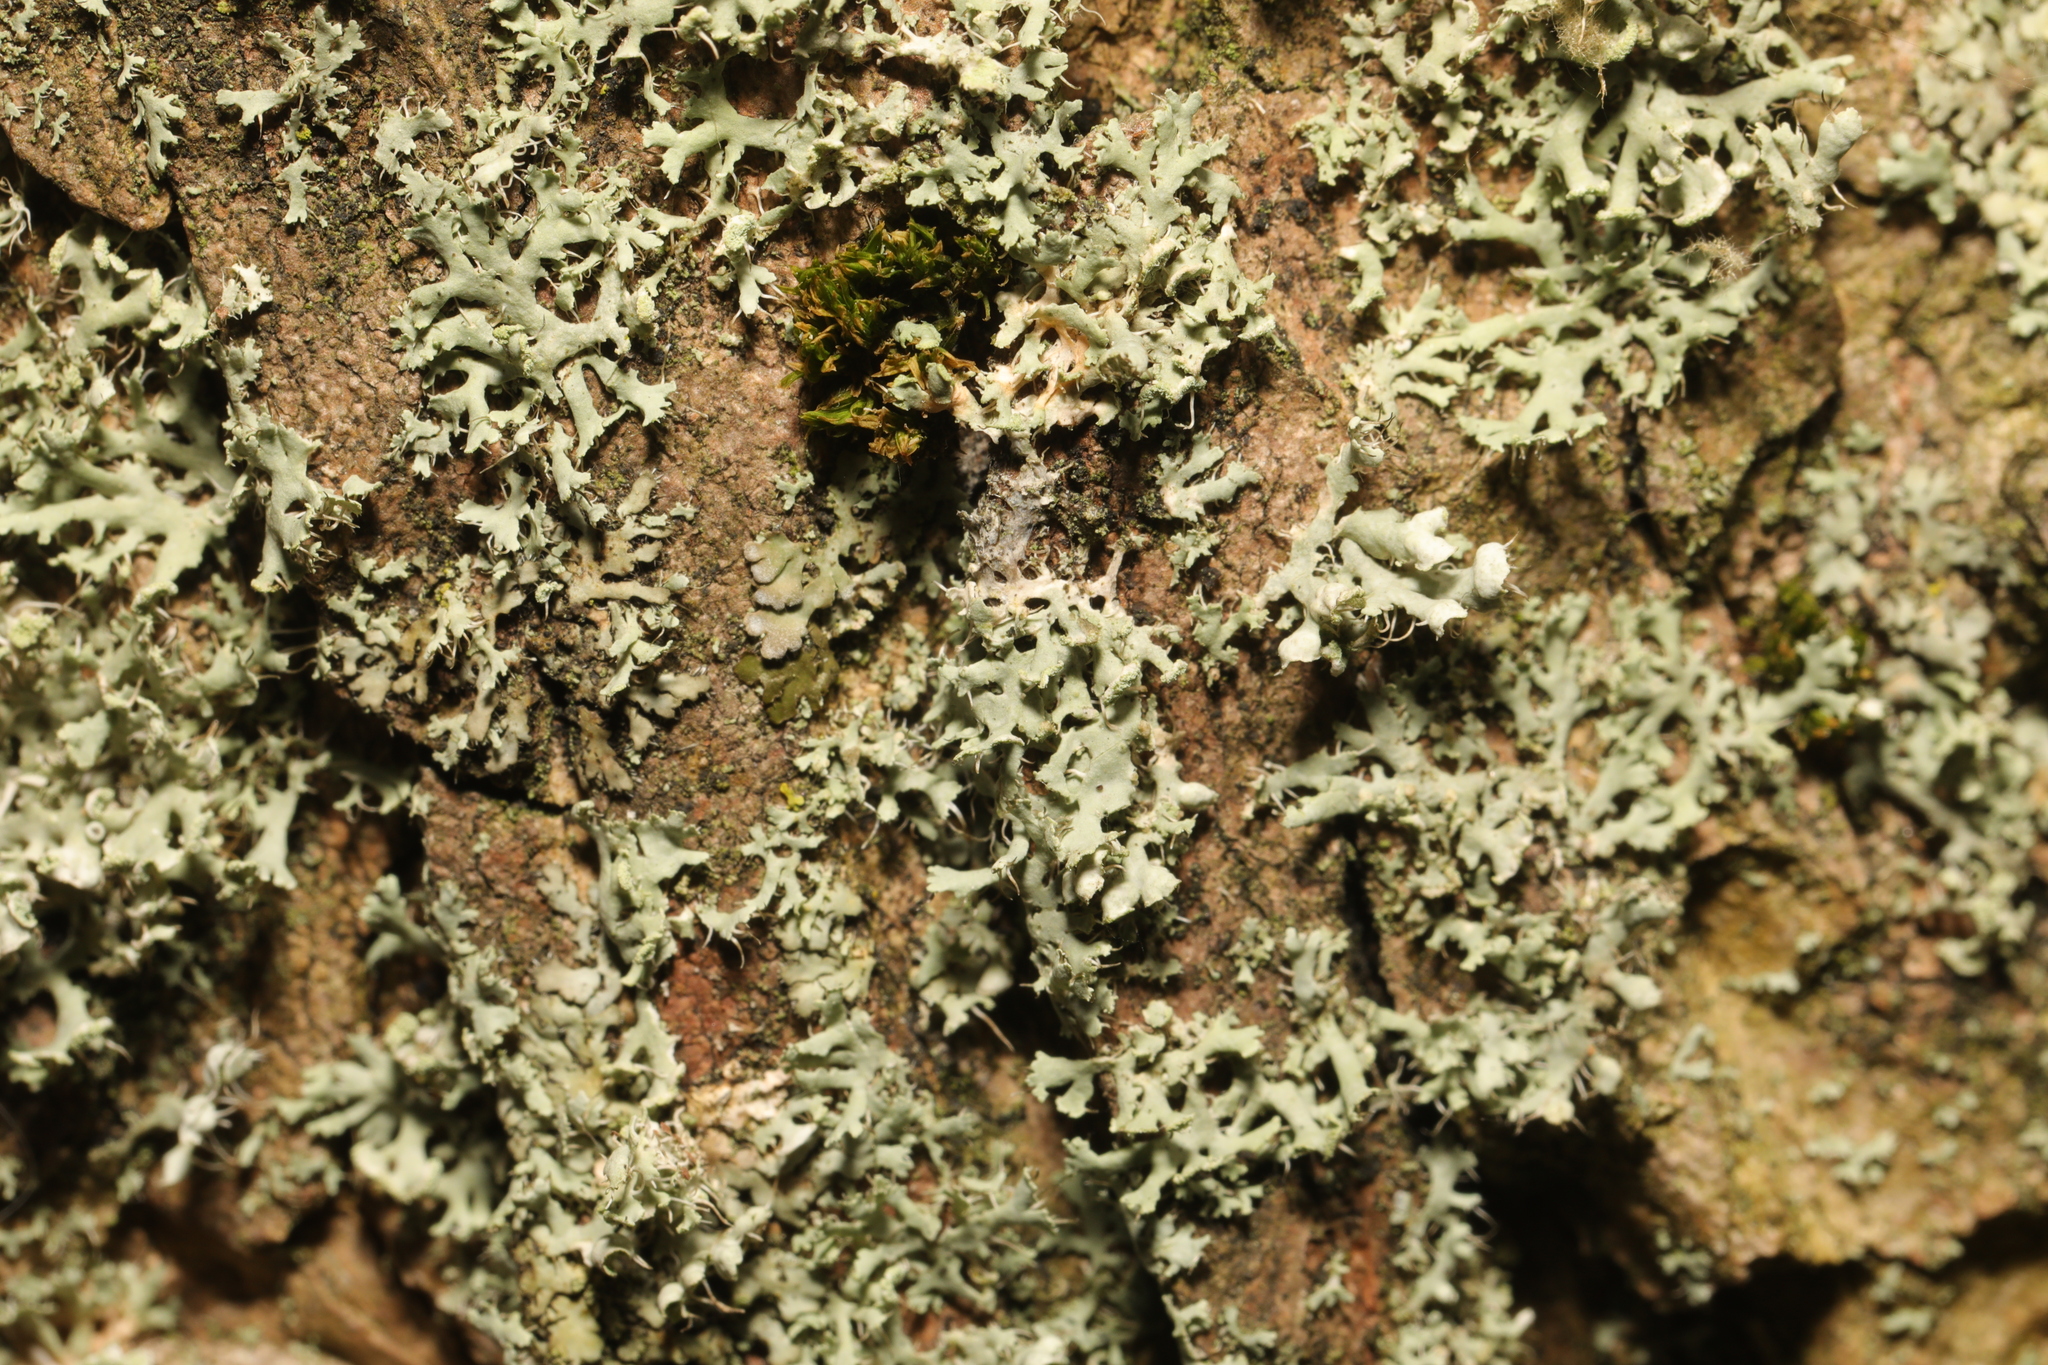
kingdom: Fungi
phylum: Ascomycota
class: Lecanoromycetes
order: Caliciales
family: Physciaceae
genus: Physcia
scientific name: Physcia adscendens
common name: Hooded rosette lichen
